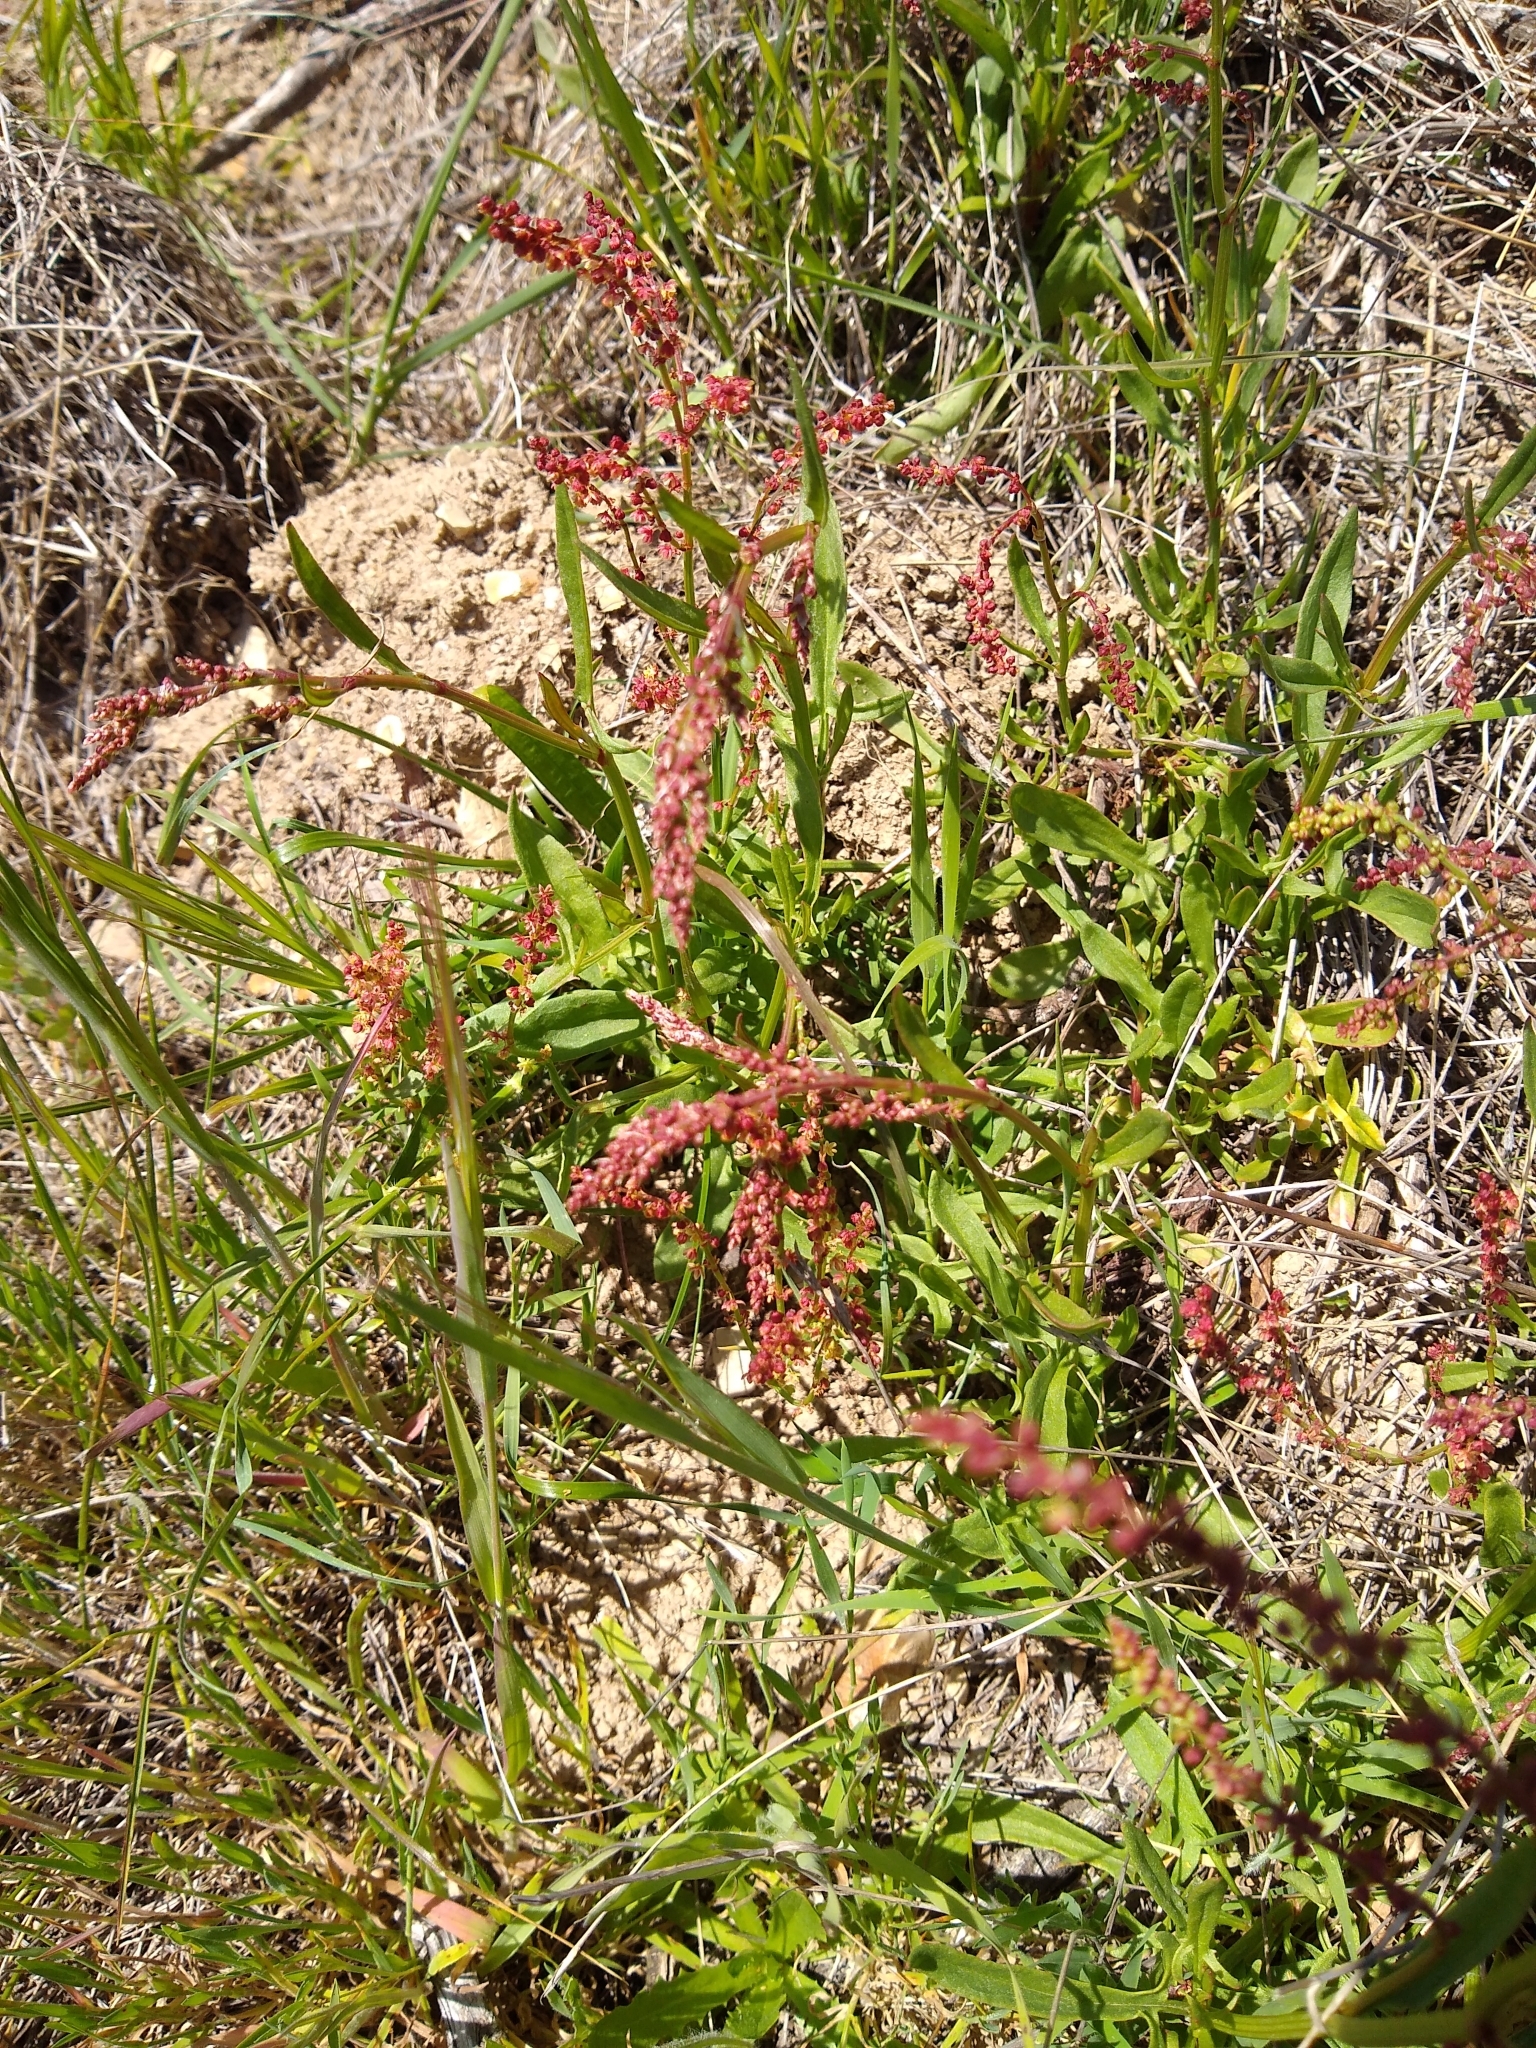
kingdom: Plantae
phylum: Tracheophyta
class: Magnoliopsida
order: Caryophyllales
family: Polygonaceae
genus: Rumex
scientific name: Rumex acetosella
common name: Common sheep sorrel
